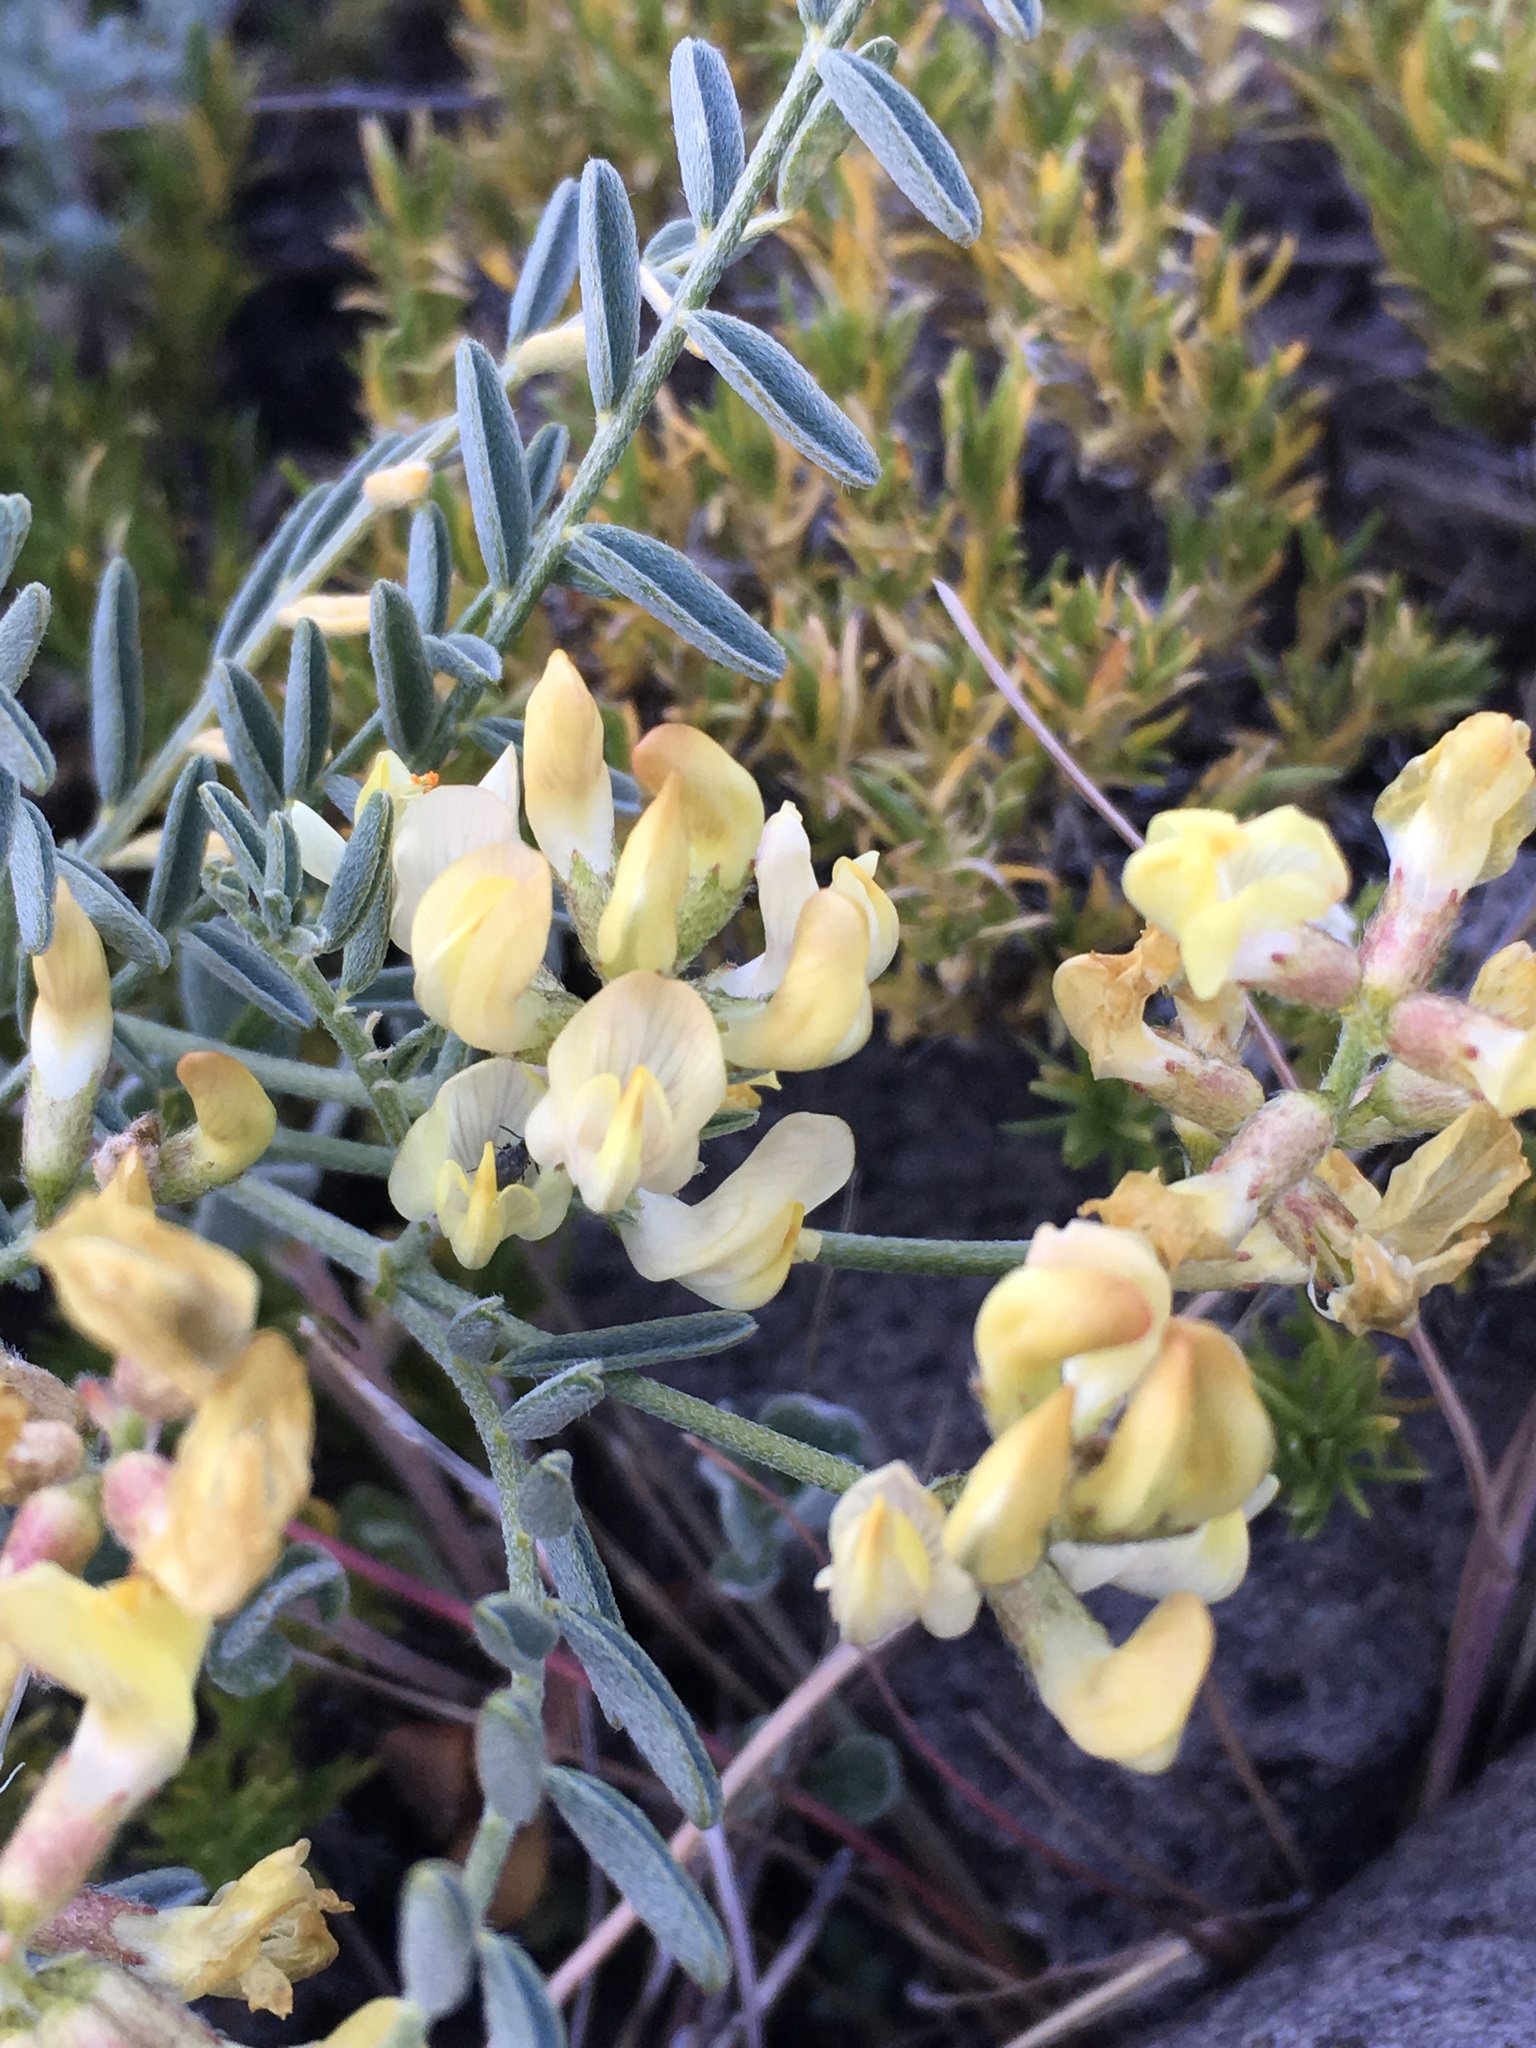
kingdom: Plantae
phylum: Tracheophyta
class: Magnoliopsida
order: Fabales
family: Fabaceae
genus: Astragalus
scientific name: Astragalus whitneyi
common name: Balloonpod milkvetch
